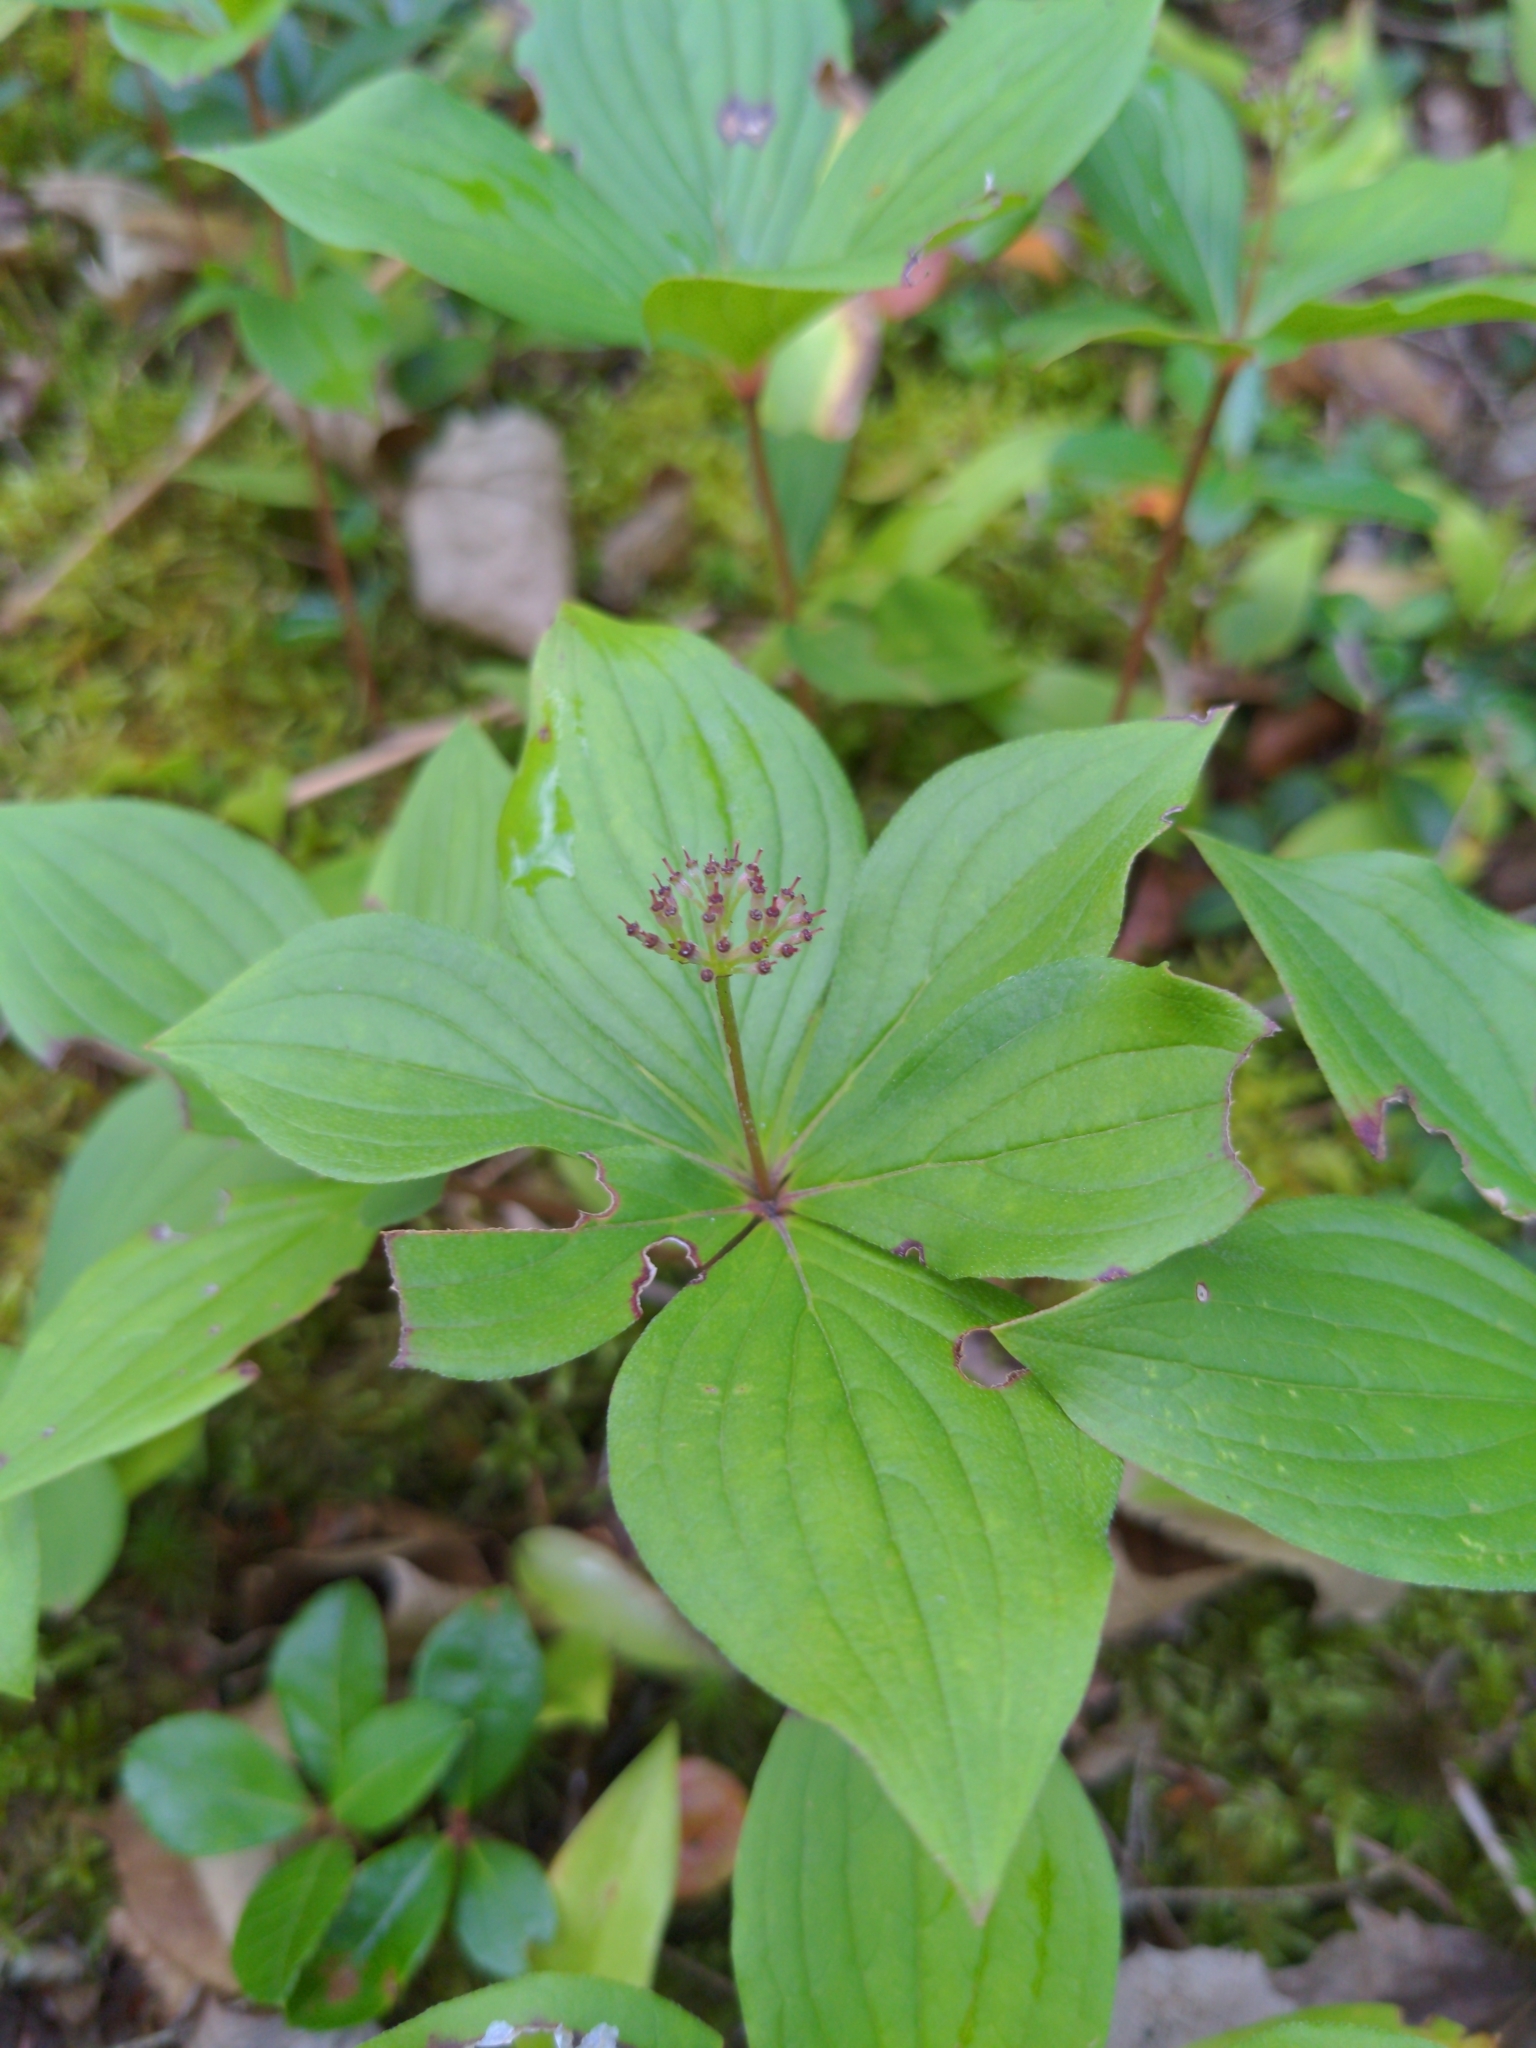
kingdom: Plantae
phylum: Tracheophyta
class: Magnoliopsida
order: Cornales
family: Cornaceae
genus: Cornus
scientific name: Cornus canadensis
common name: Creeping dogwood
